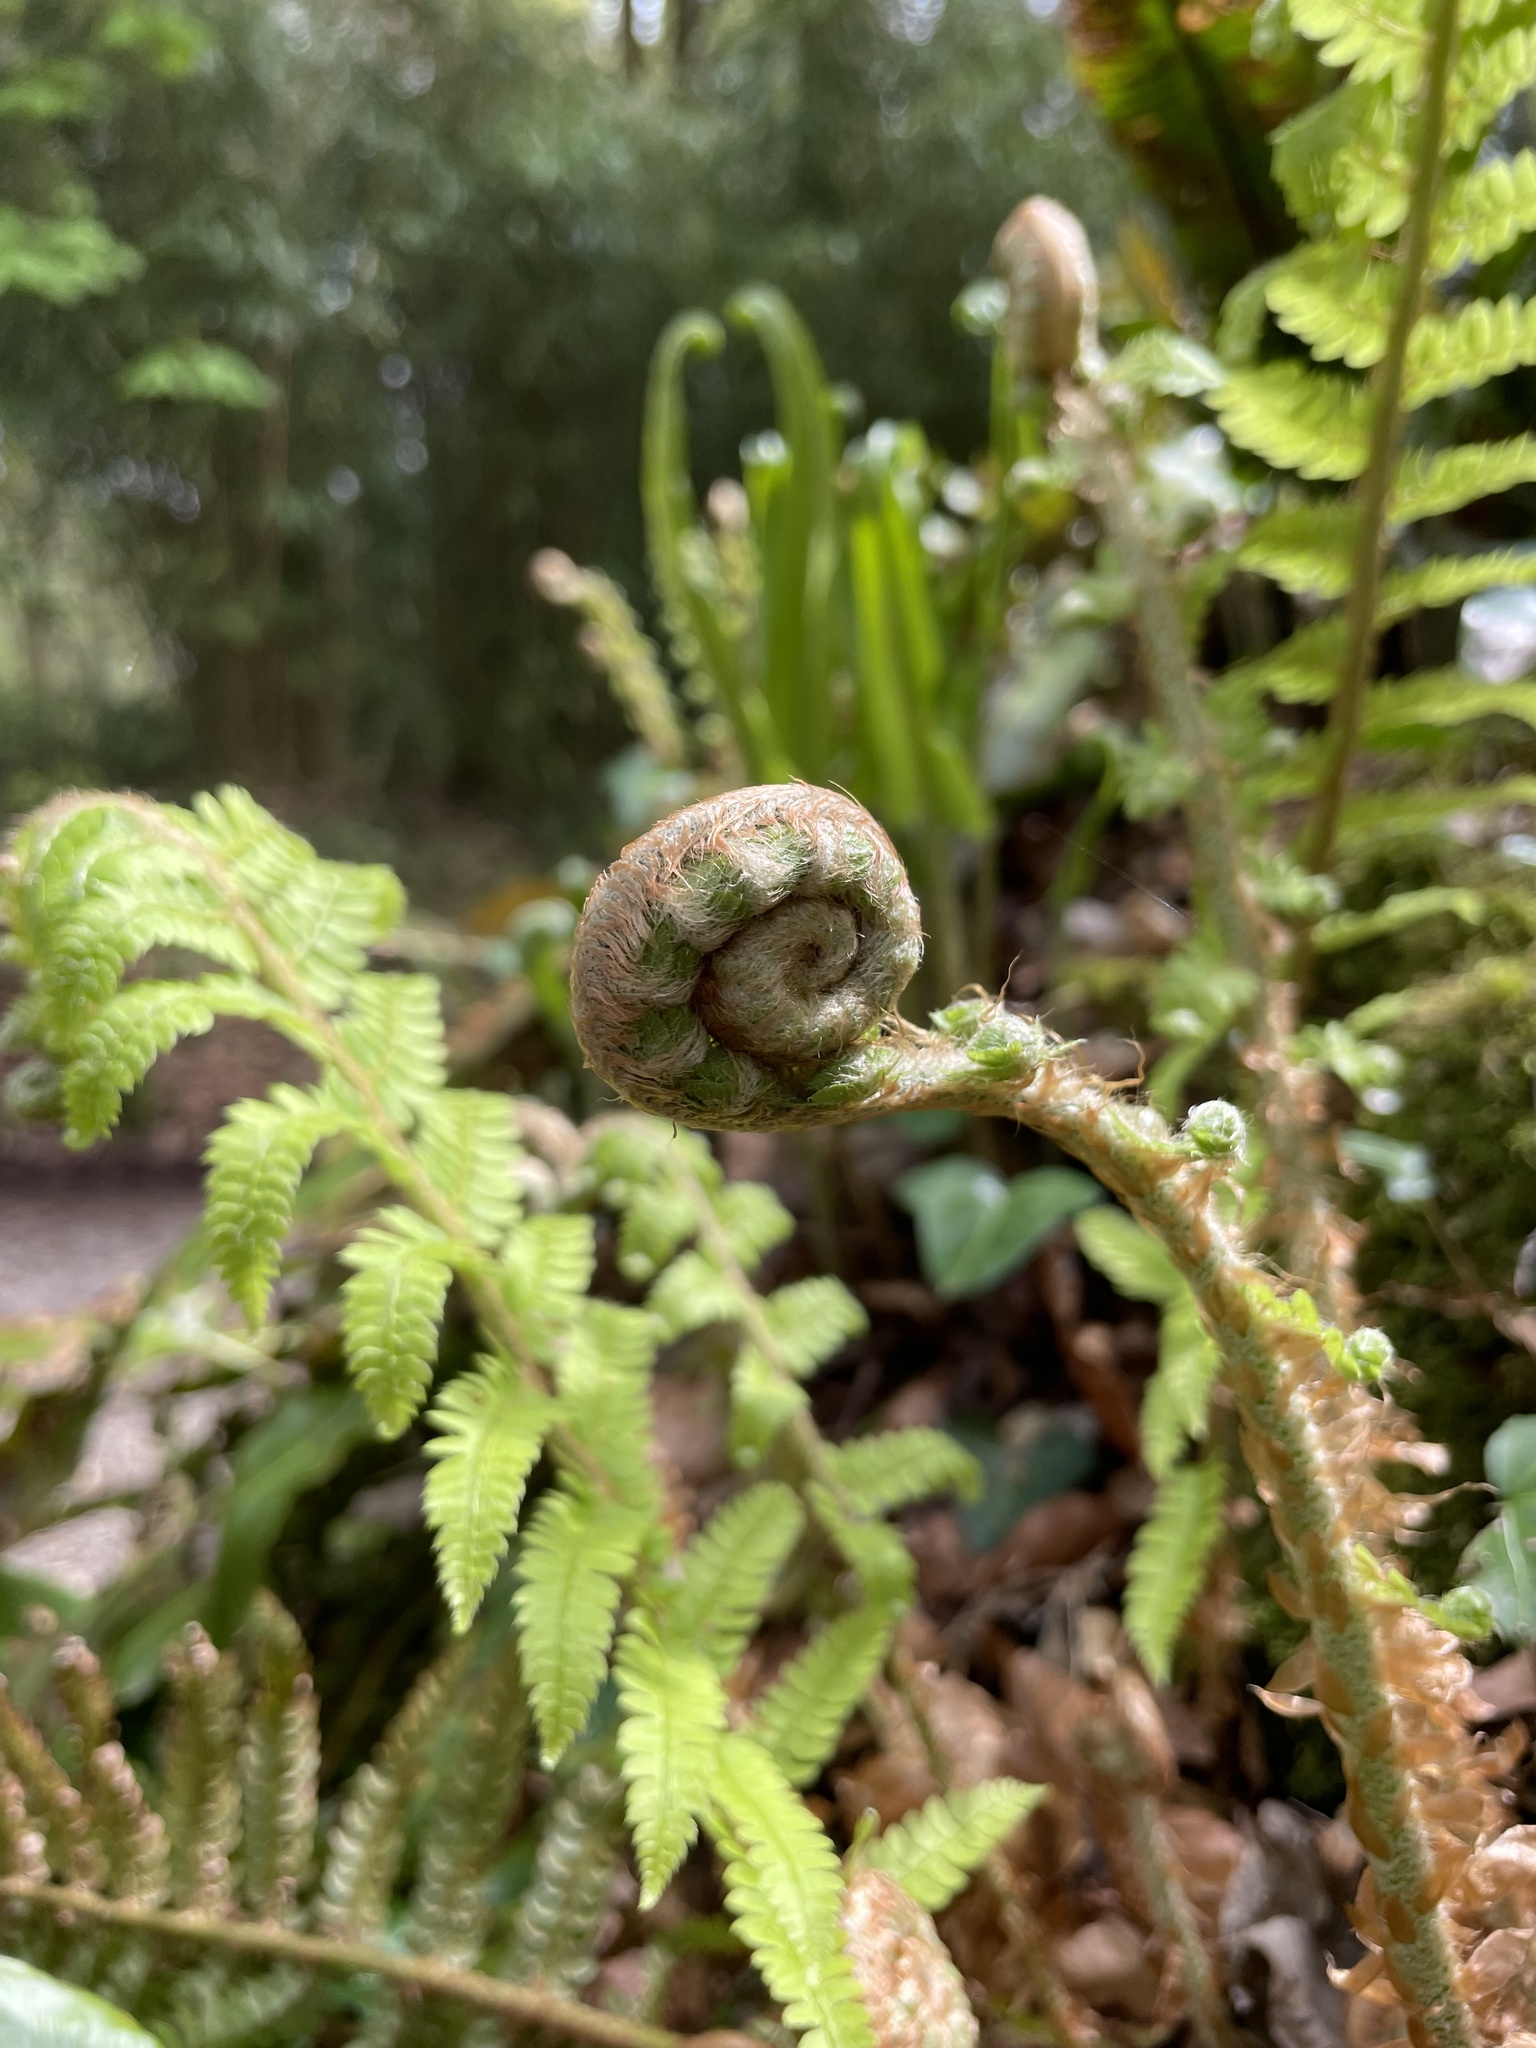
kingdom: Plantae
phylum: Tracheophyta
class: Polypodiopsida
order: Polypodiales
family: Dryopteridaceae
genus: Polystichum
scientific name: Polystichum setiferum
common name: Soft shield-fern
